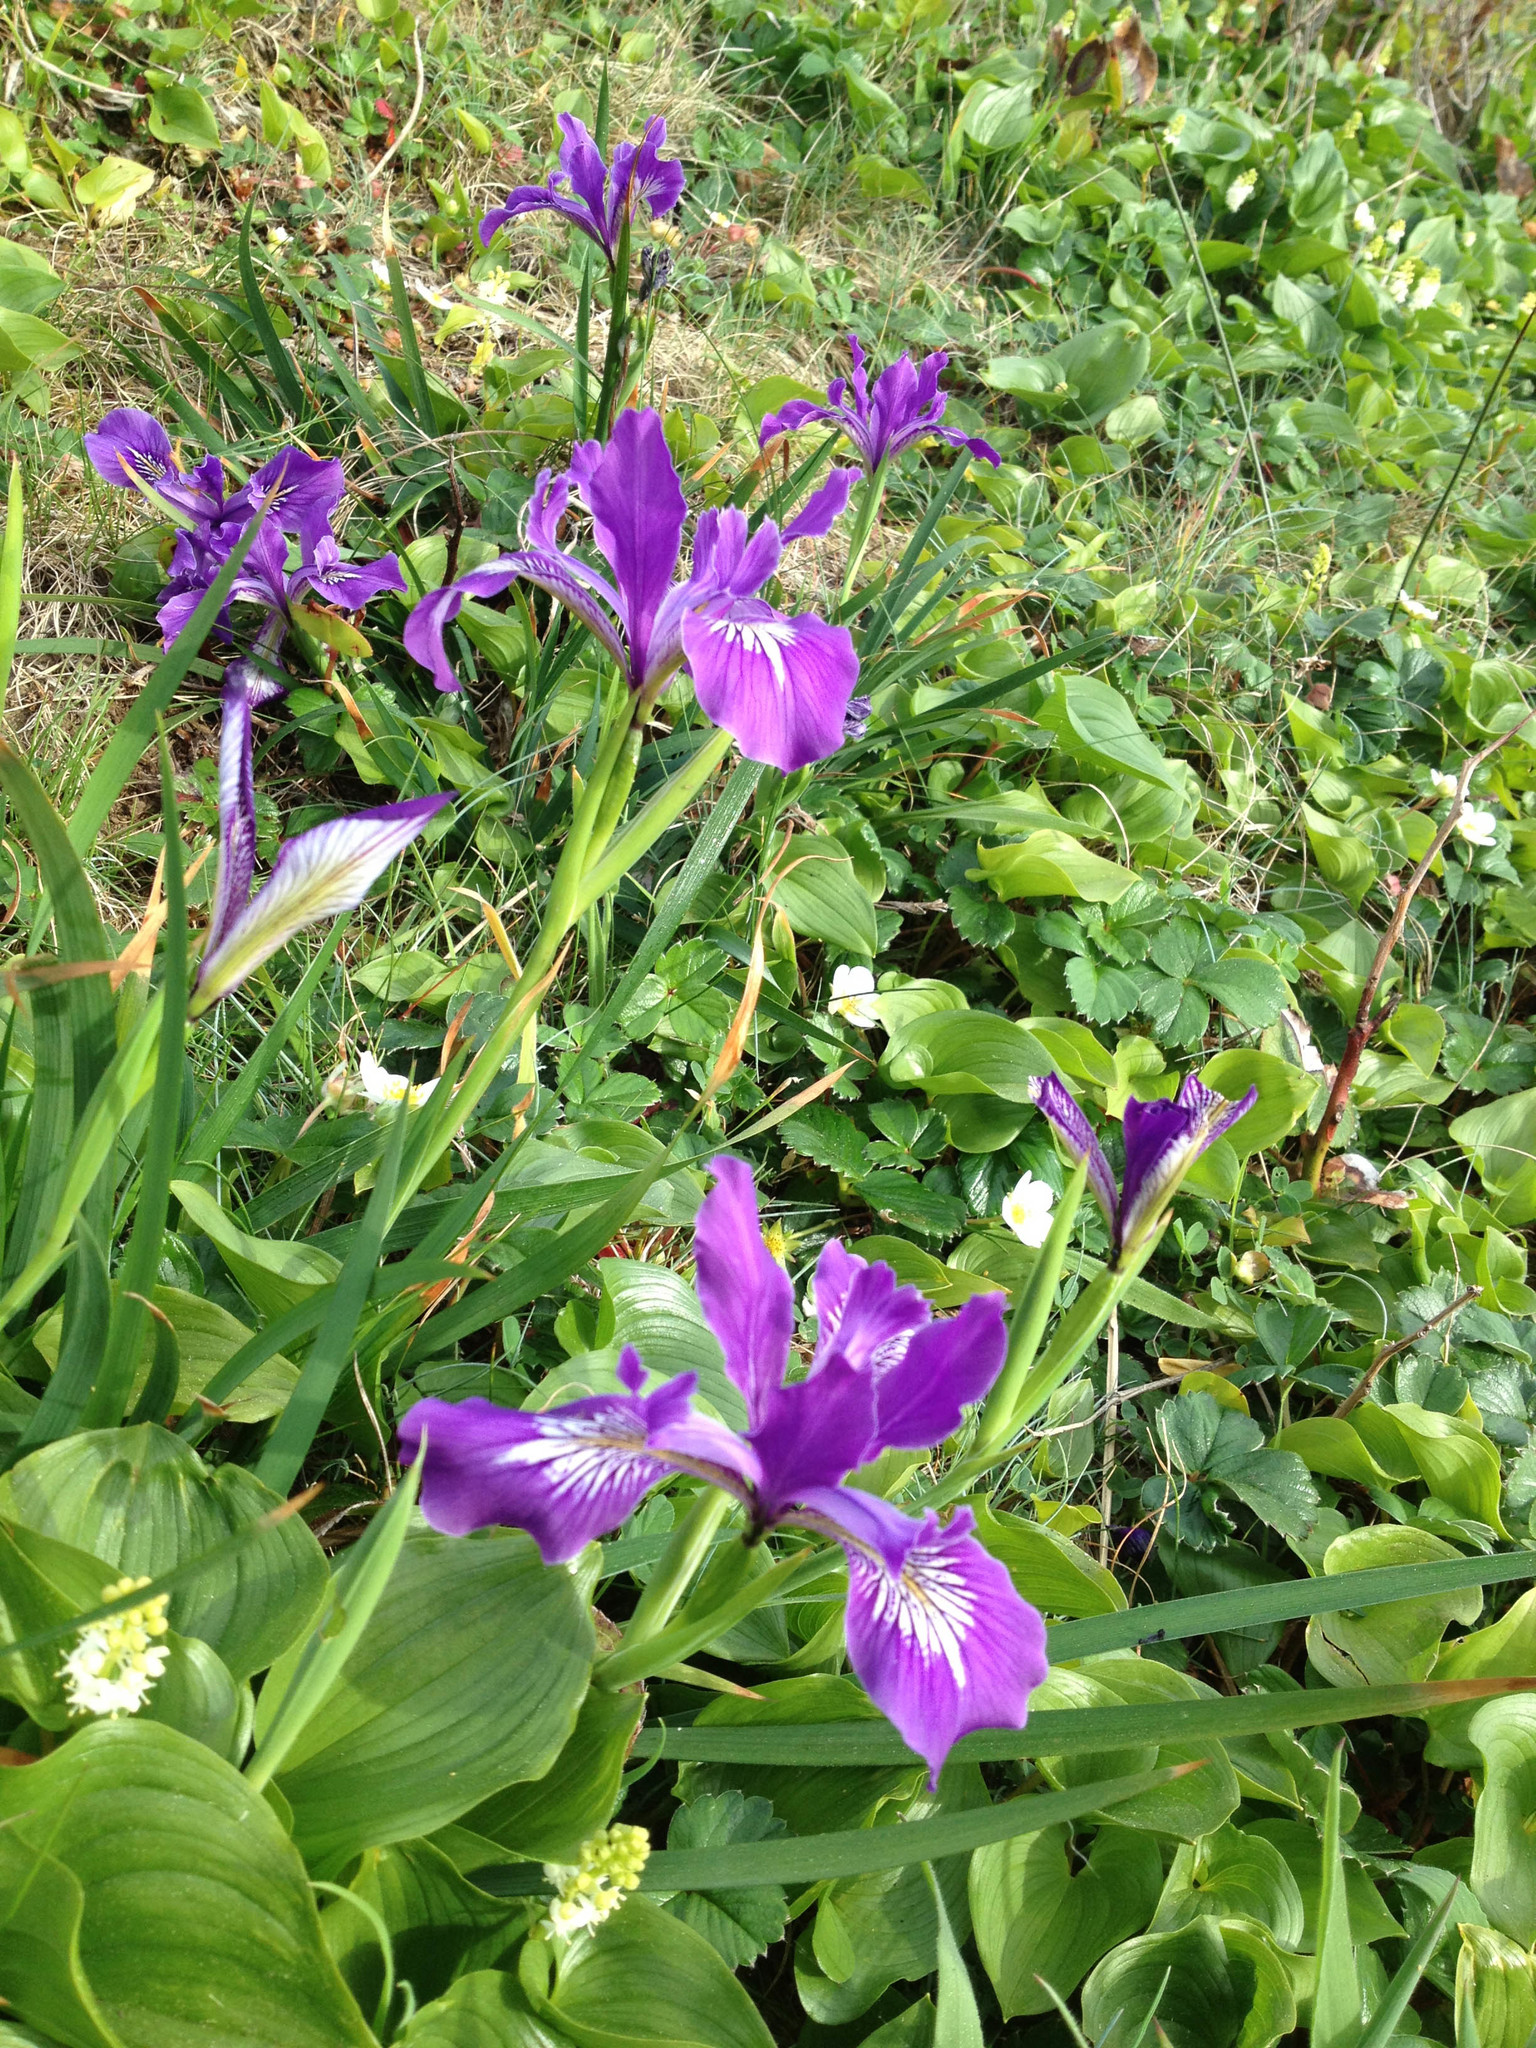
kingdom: Plantae
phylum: Tracheophyta
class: Liliopsida
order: Asparagales
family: Iridaceae
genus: Iris
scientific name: Iris tenax
